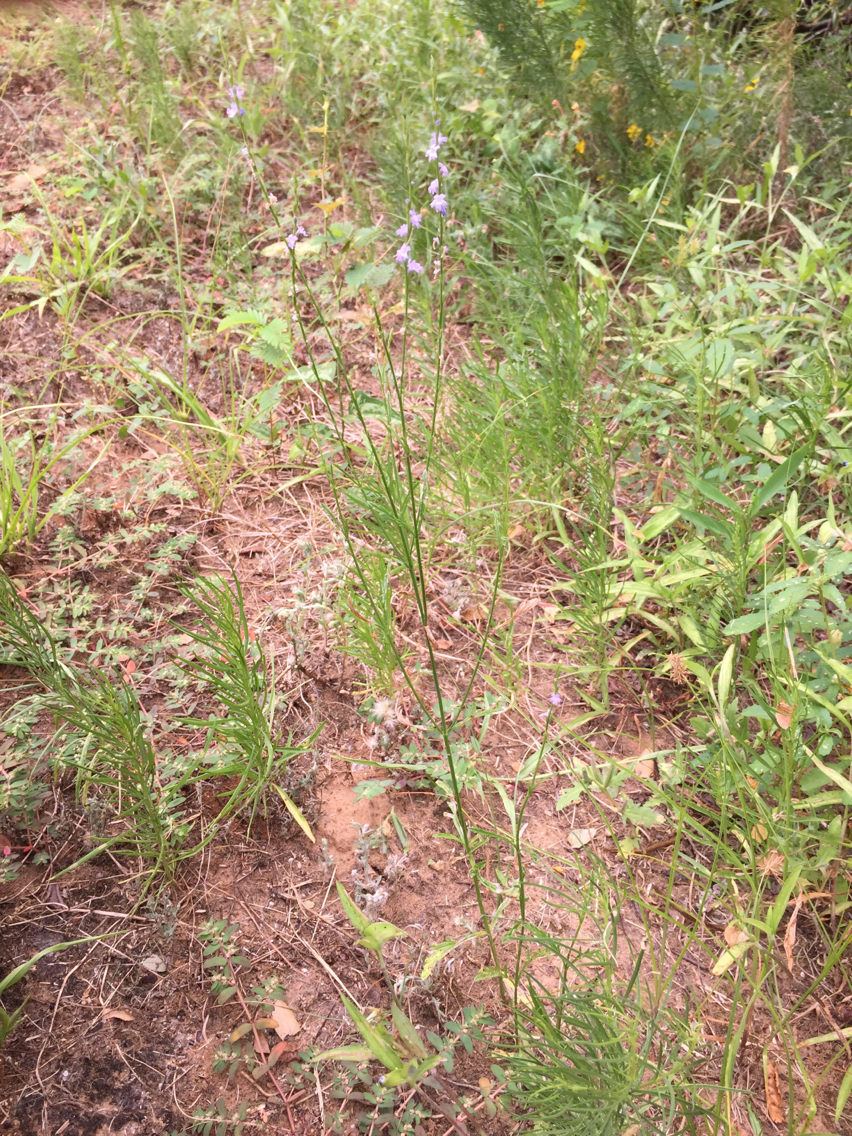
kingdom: Plantae
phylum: Tracheophyta
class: Magnoliopsida
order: Lamiales
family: Verbenaceae
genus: Verbena
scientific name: Verbena halei
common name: Texas vervain
